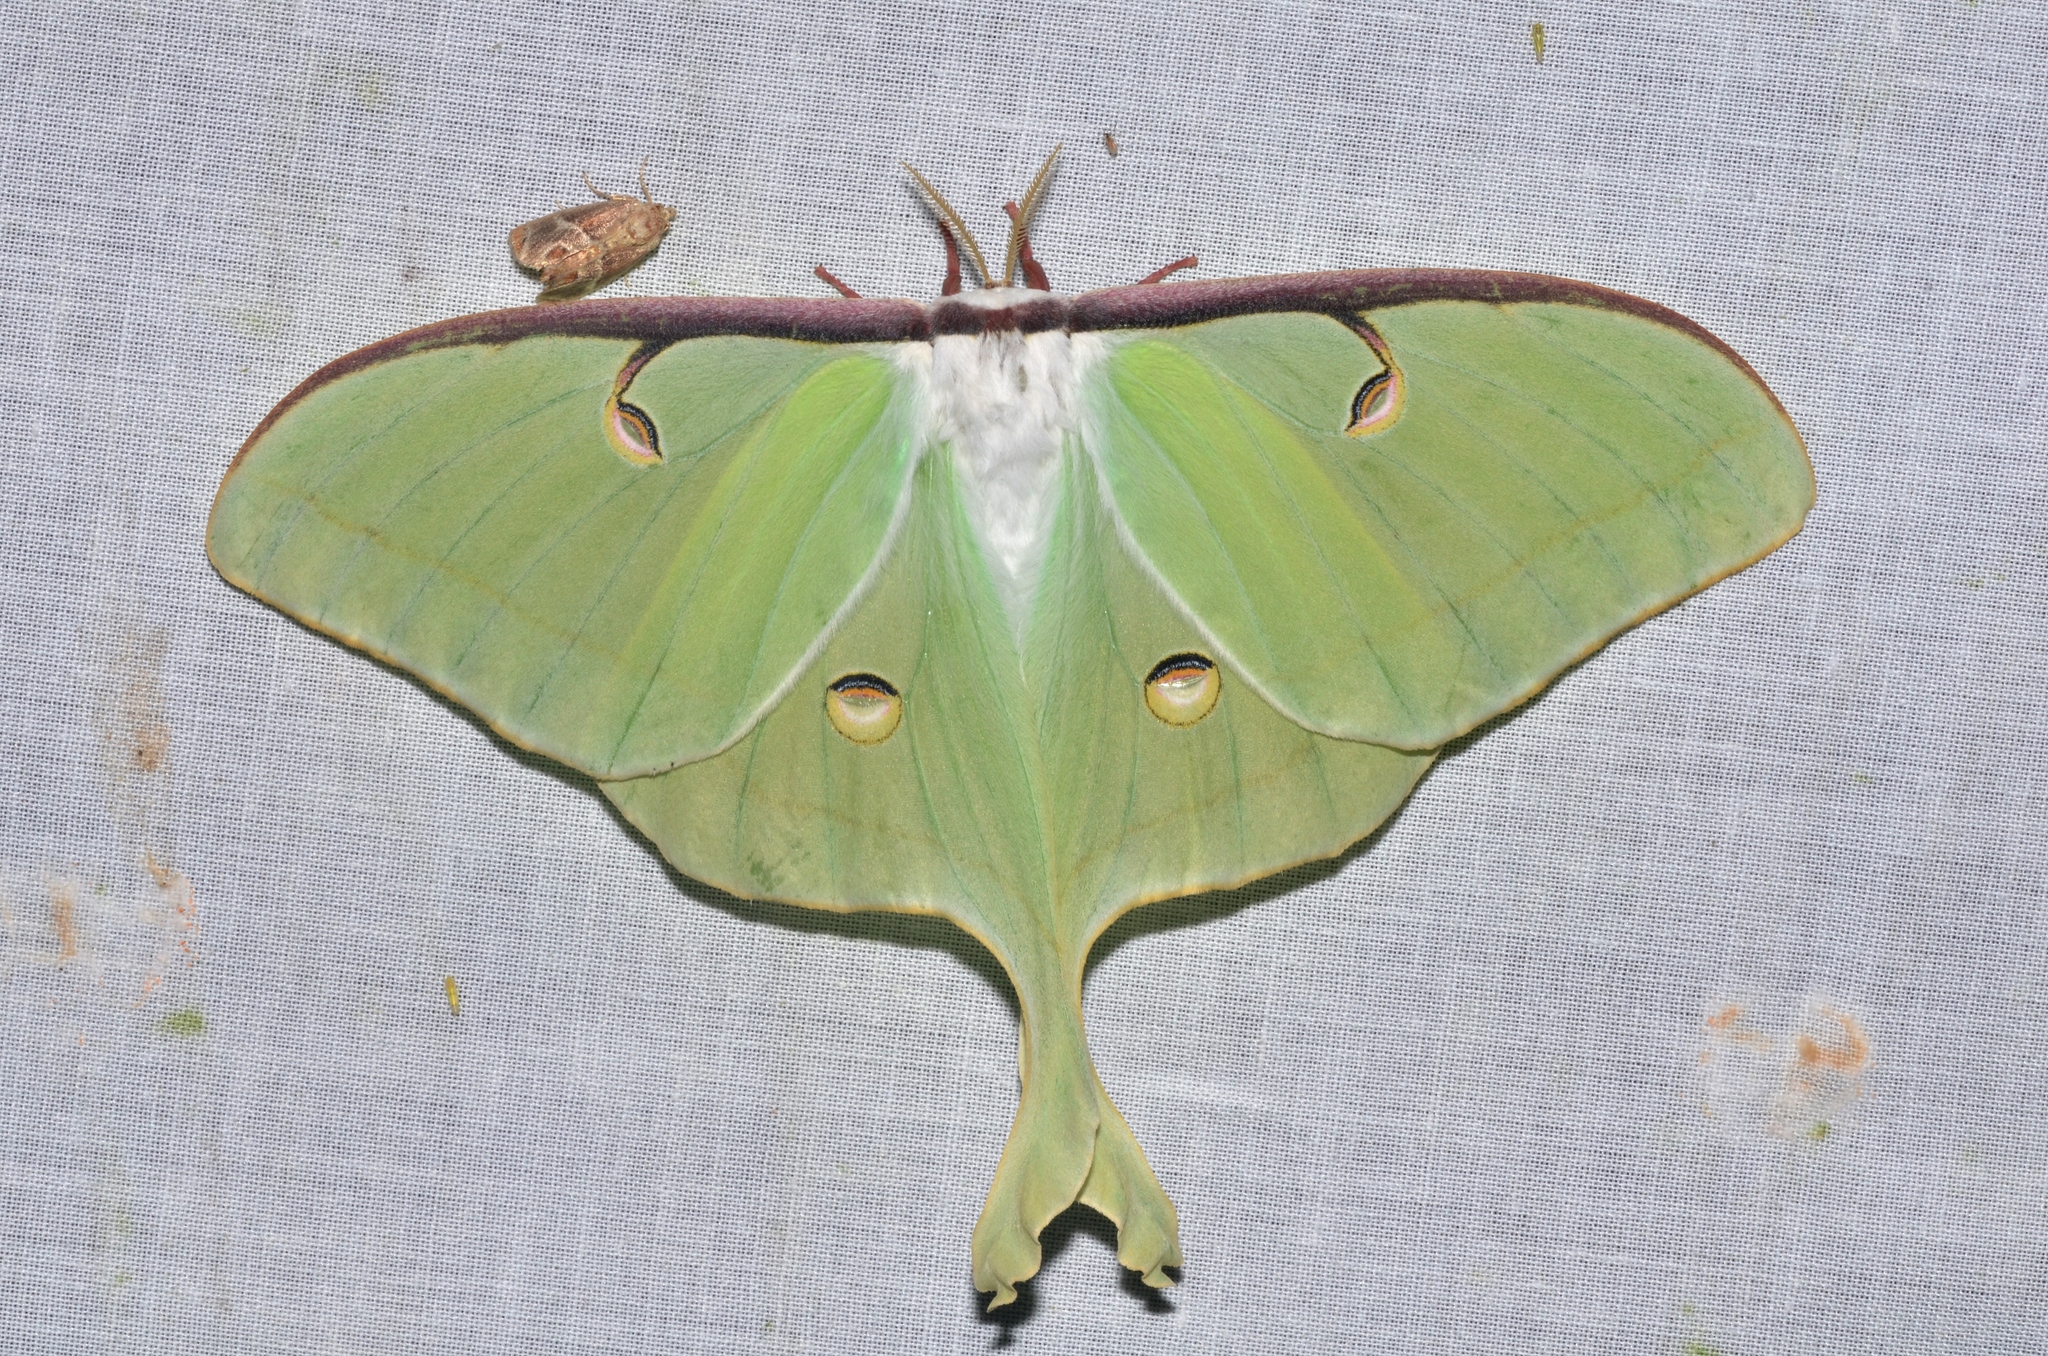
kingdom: Animalia
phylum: Arthropoda
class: Insecta
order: Lepidoptera
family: Saturniidae
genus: Actias
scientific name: Actias luna
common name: Luna moth
